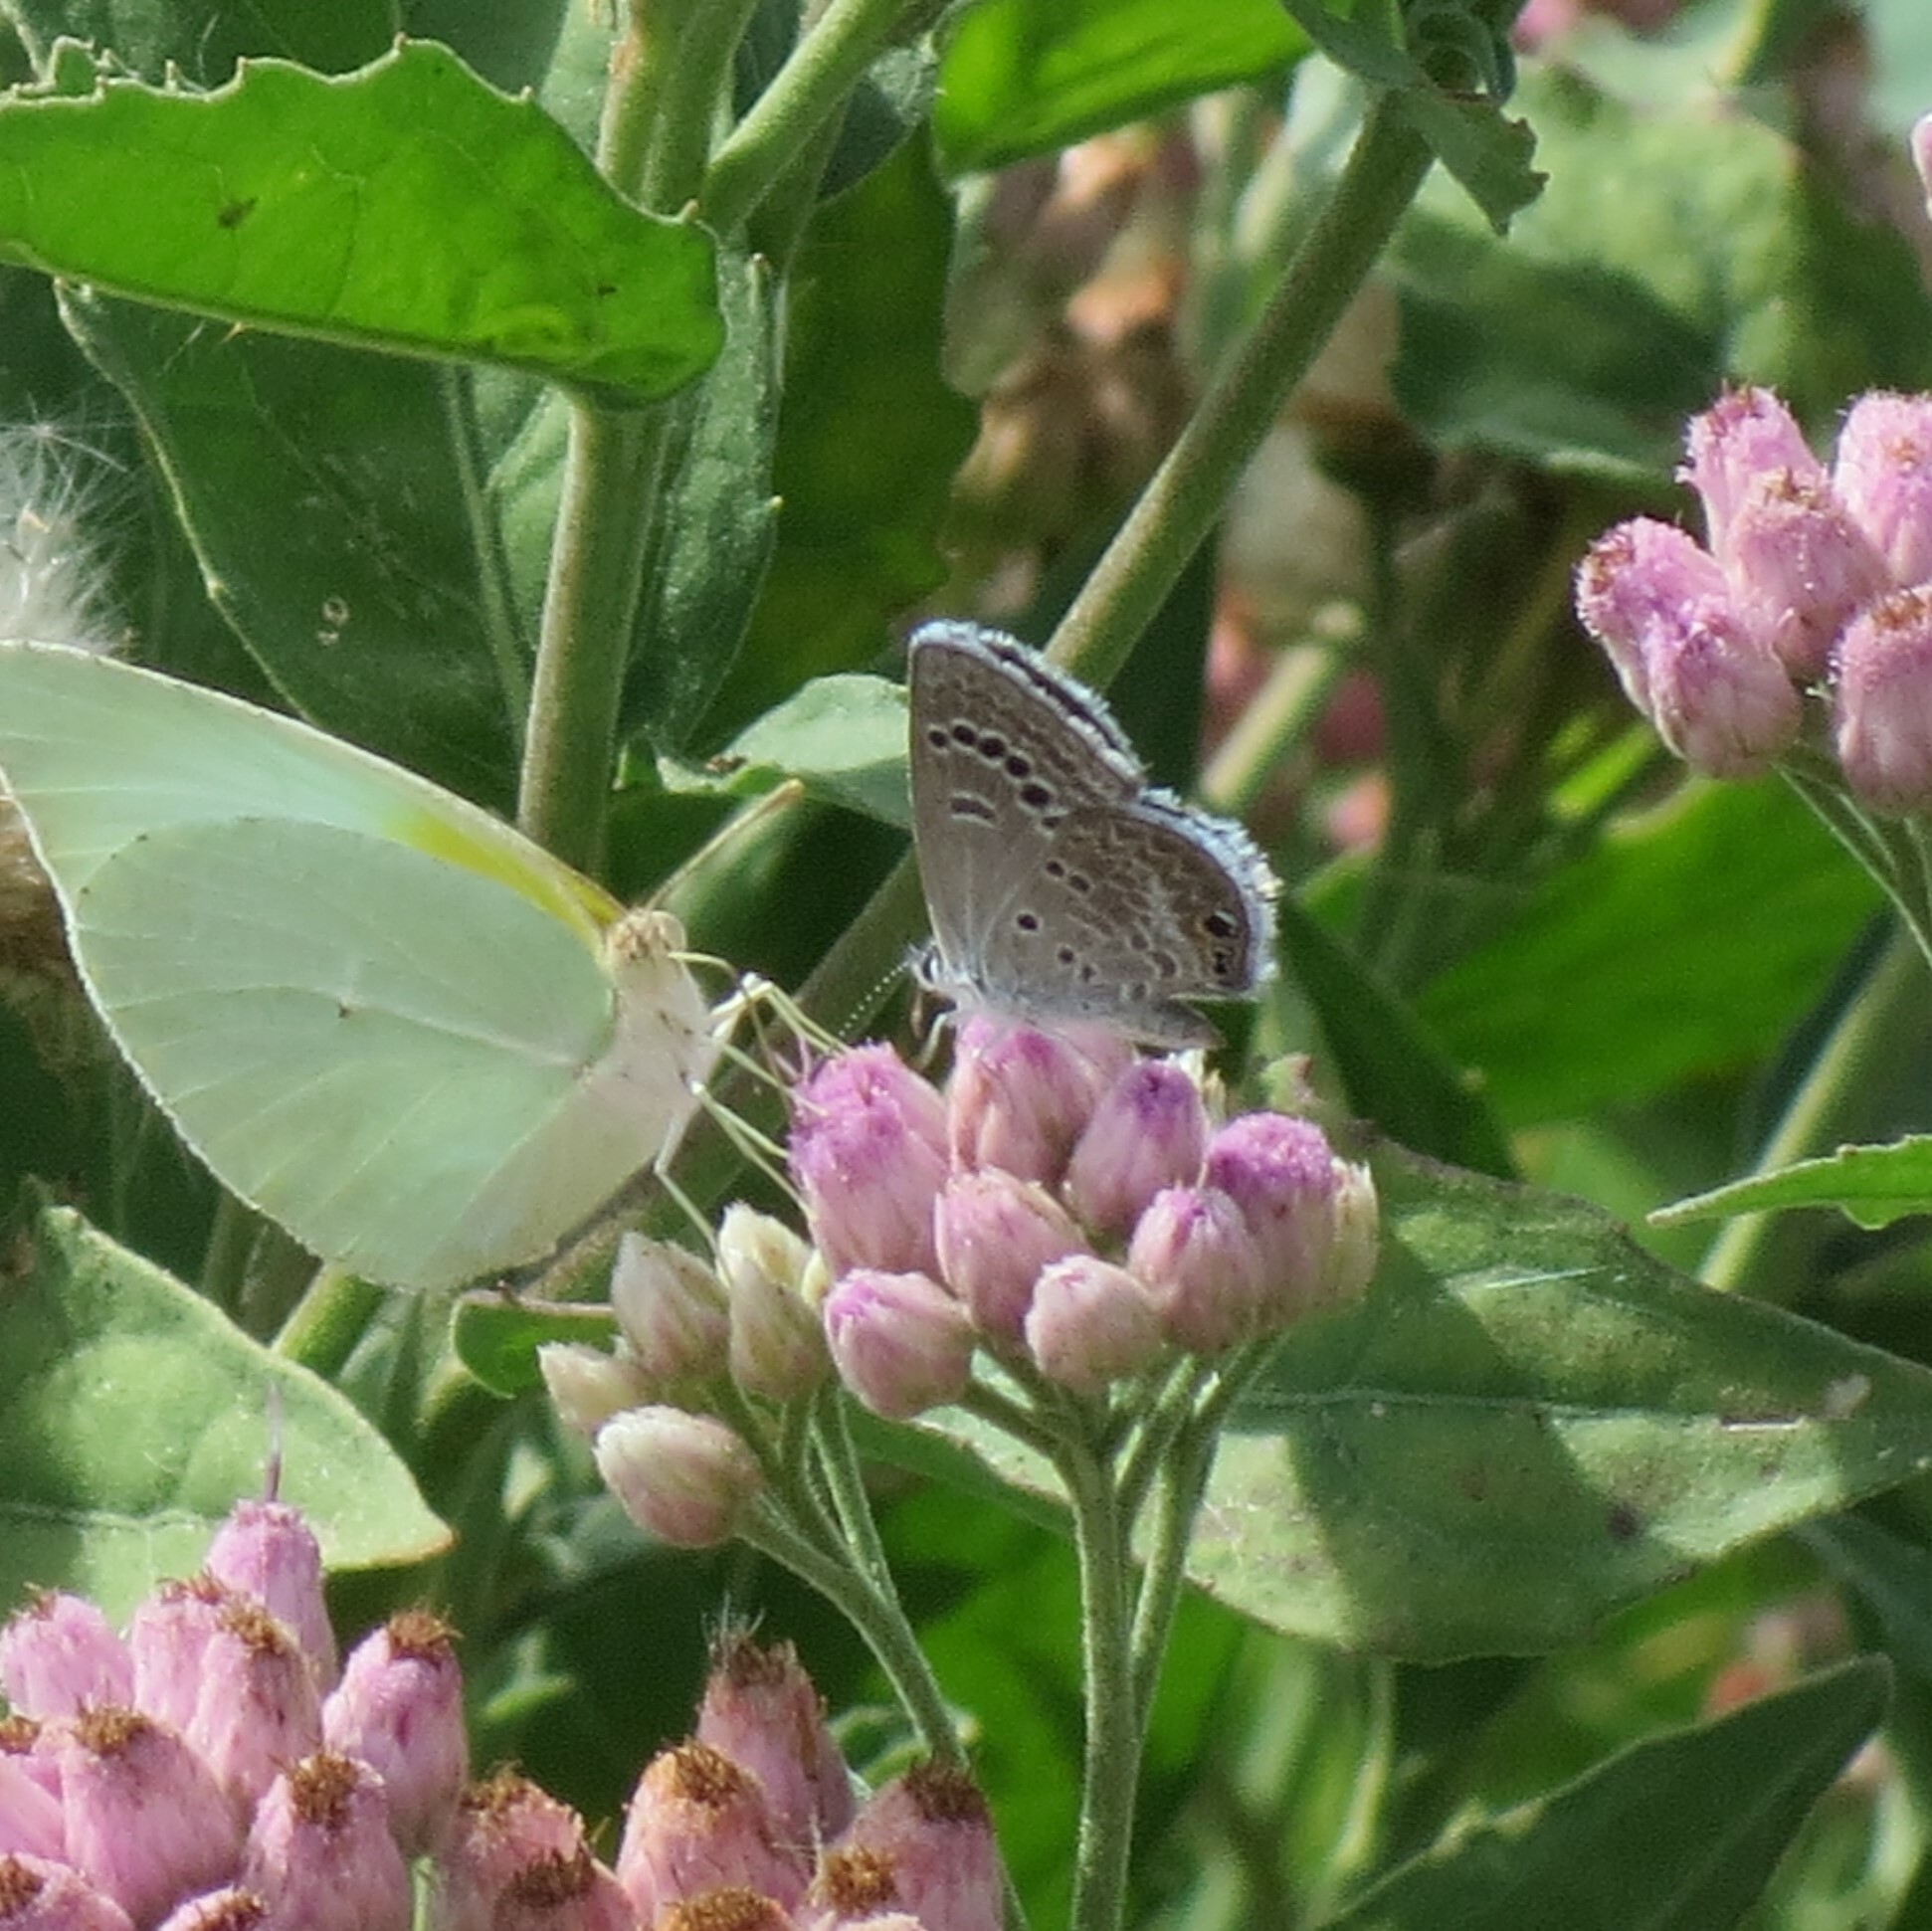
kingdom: Animalia
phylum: Arthropoda
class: Insecta
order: Lepidoptera
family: Lycaenidae
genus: Echinargus
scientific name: Echinargus isola
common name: Reakirt's blue
